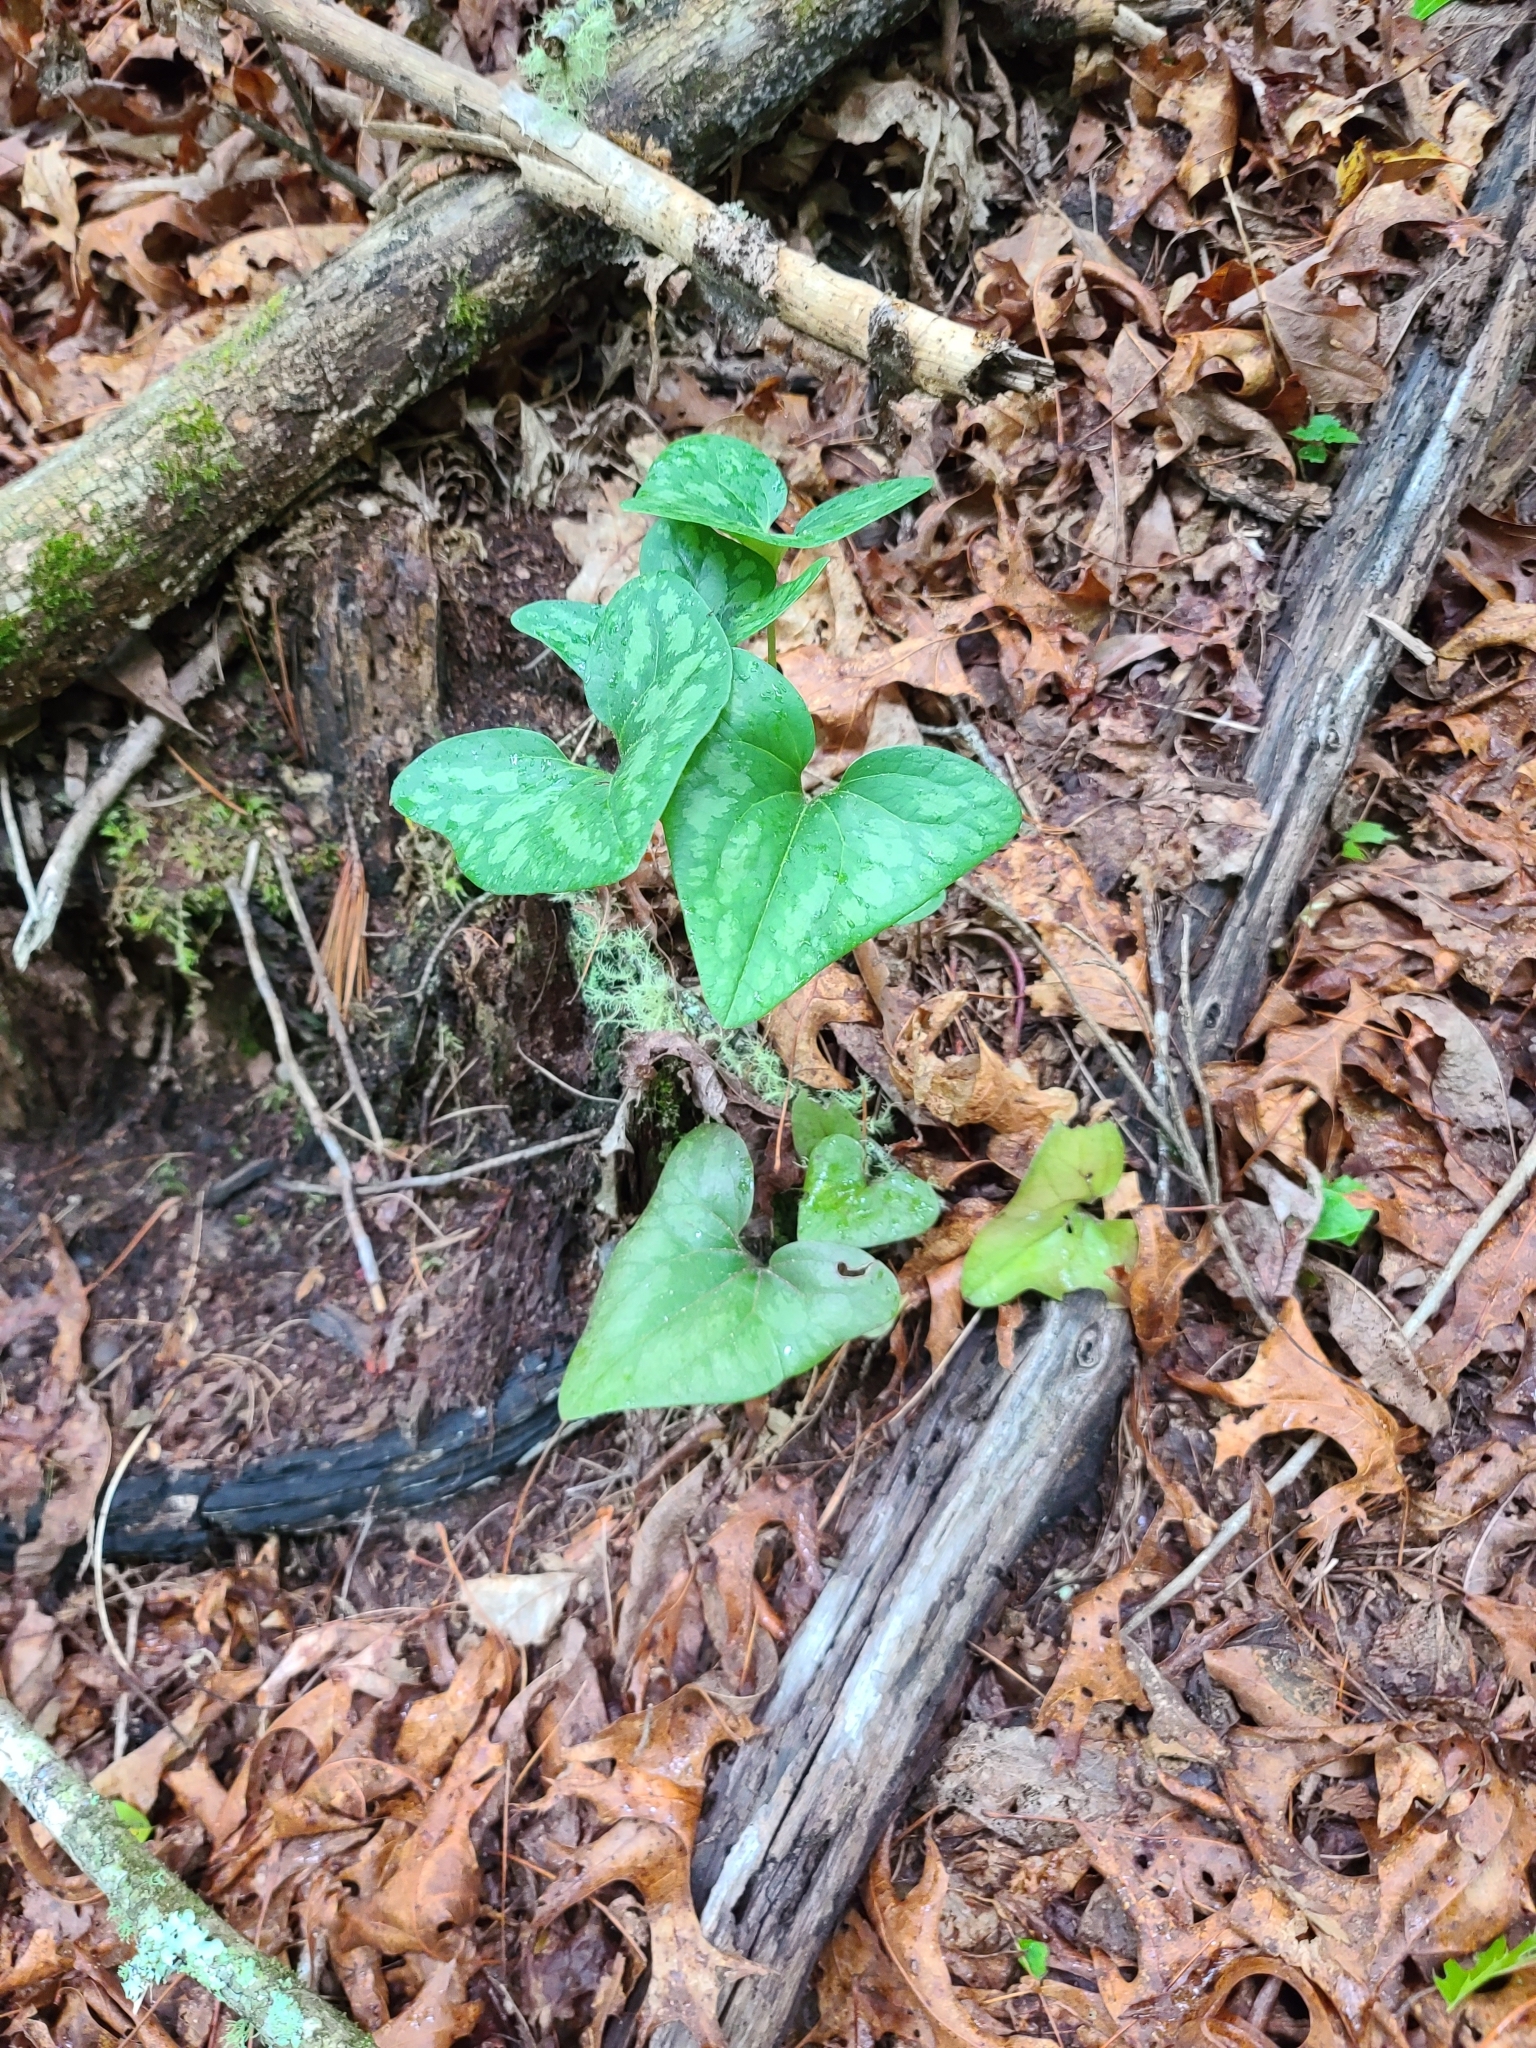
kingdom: Plantae
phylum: Tracheophyta
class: Magnoliopsida
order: Piperales
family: Aristolochiaceae
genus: Hexastylis
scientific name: Hexastylis arifolia
